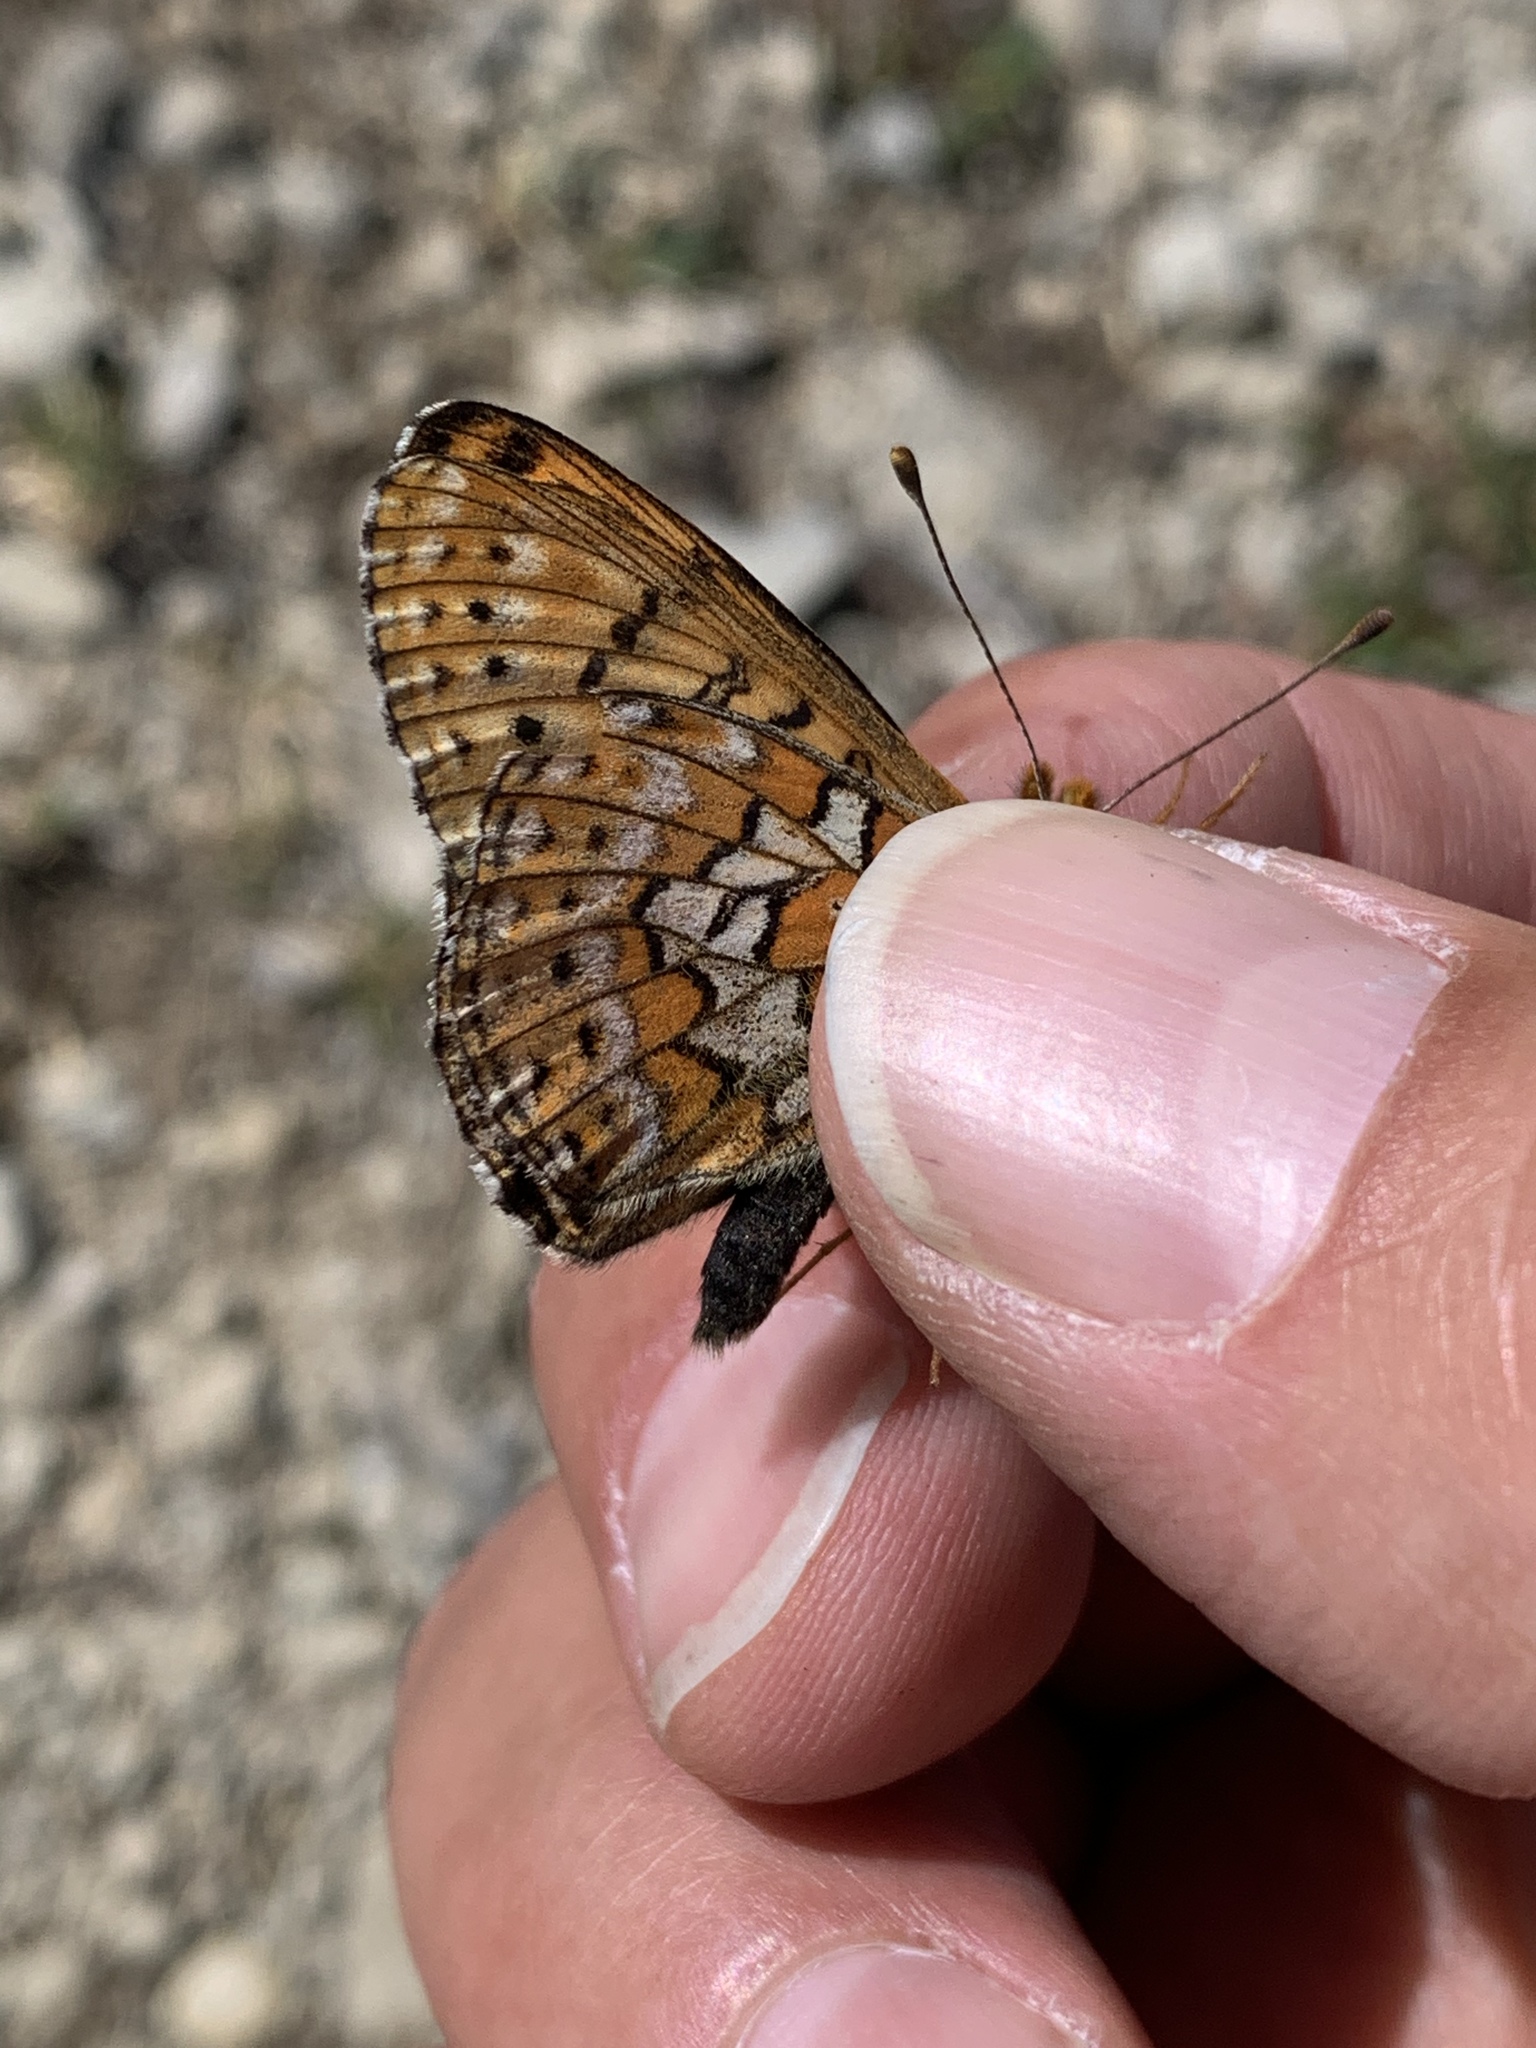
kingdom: Animalia
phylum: Arthropoda
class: Insecta
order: Lepidoptera
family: Nymphalidae
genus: Clossiana
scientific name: Clossiana astarte
